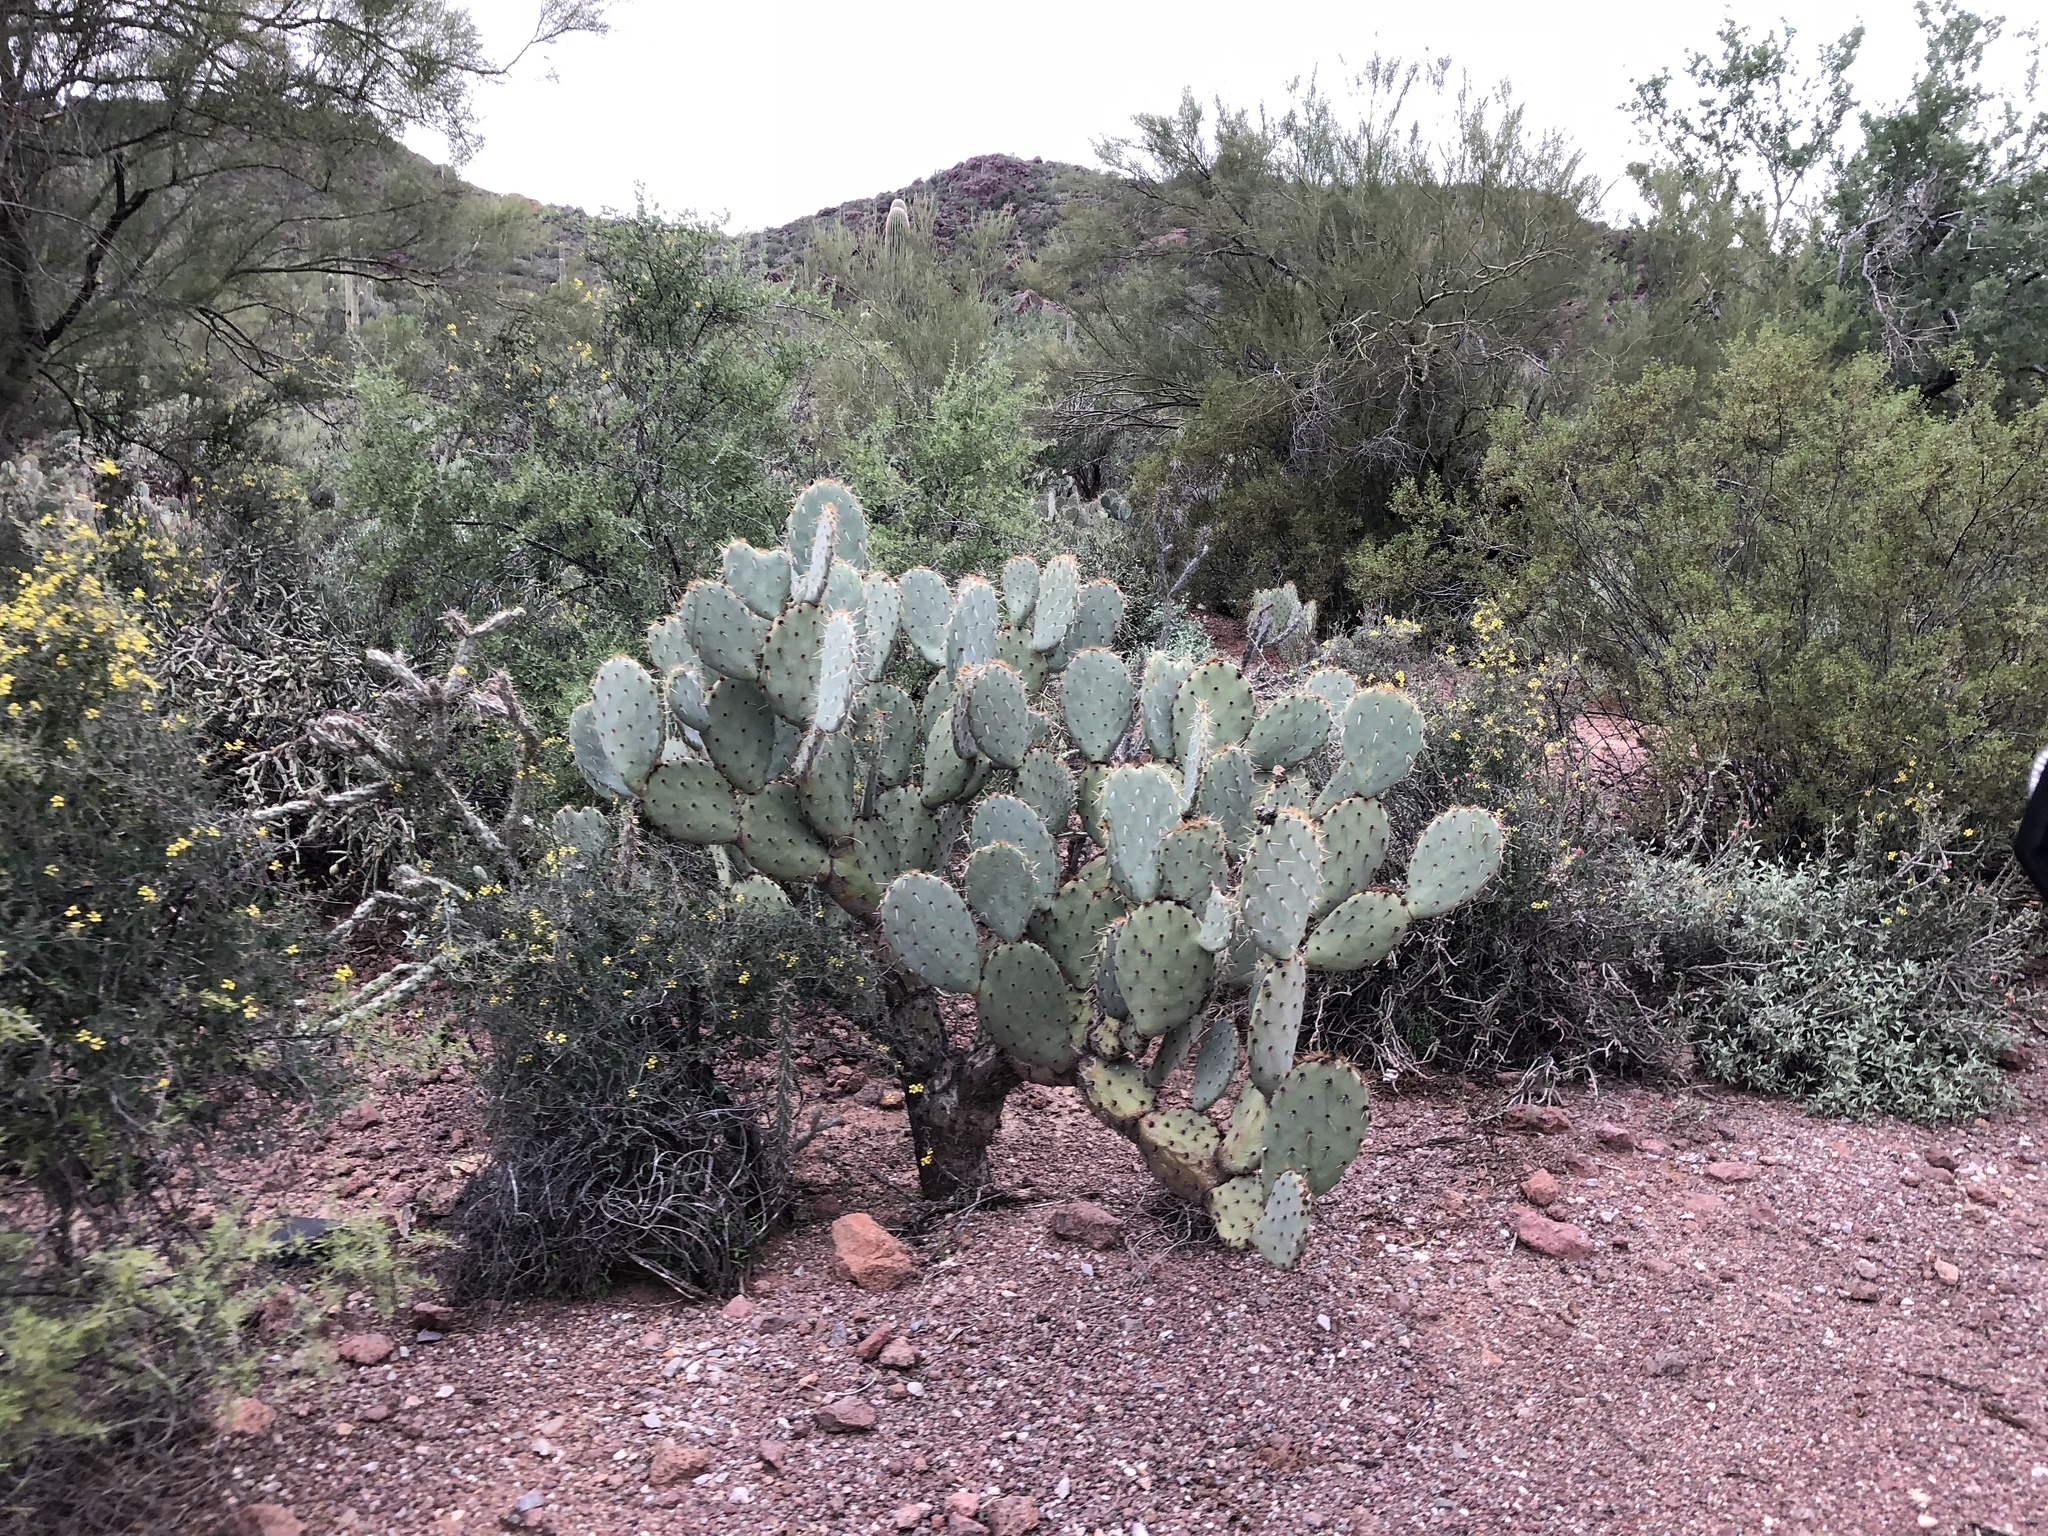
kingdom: Plantae
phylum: Tracheophyta
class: Magnoliopsida
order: Caryophyllales
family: Cactaceae
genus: Opuntia
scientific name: Opuntia engelmannii
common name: Cactus-apple
